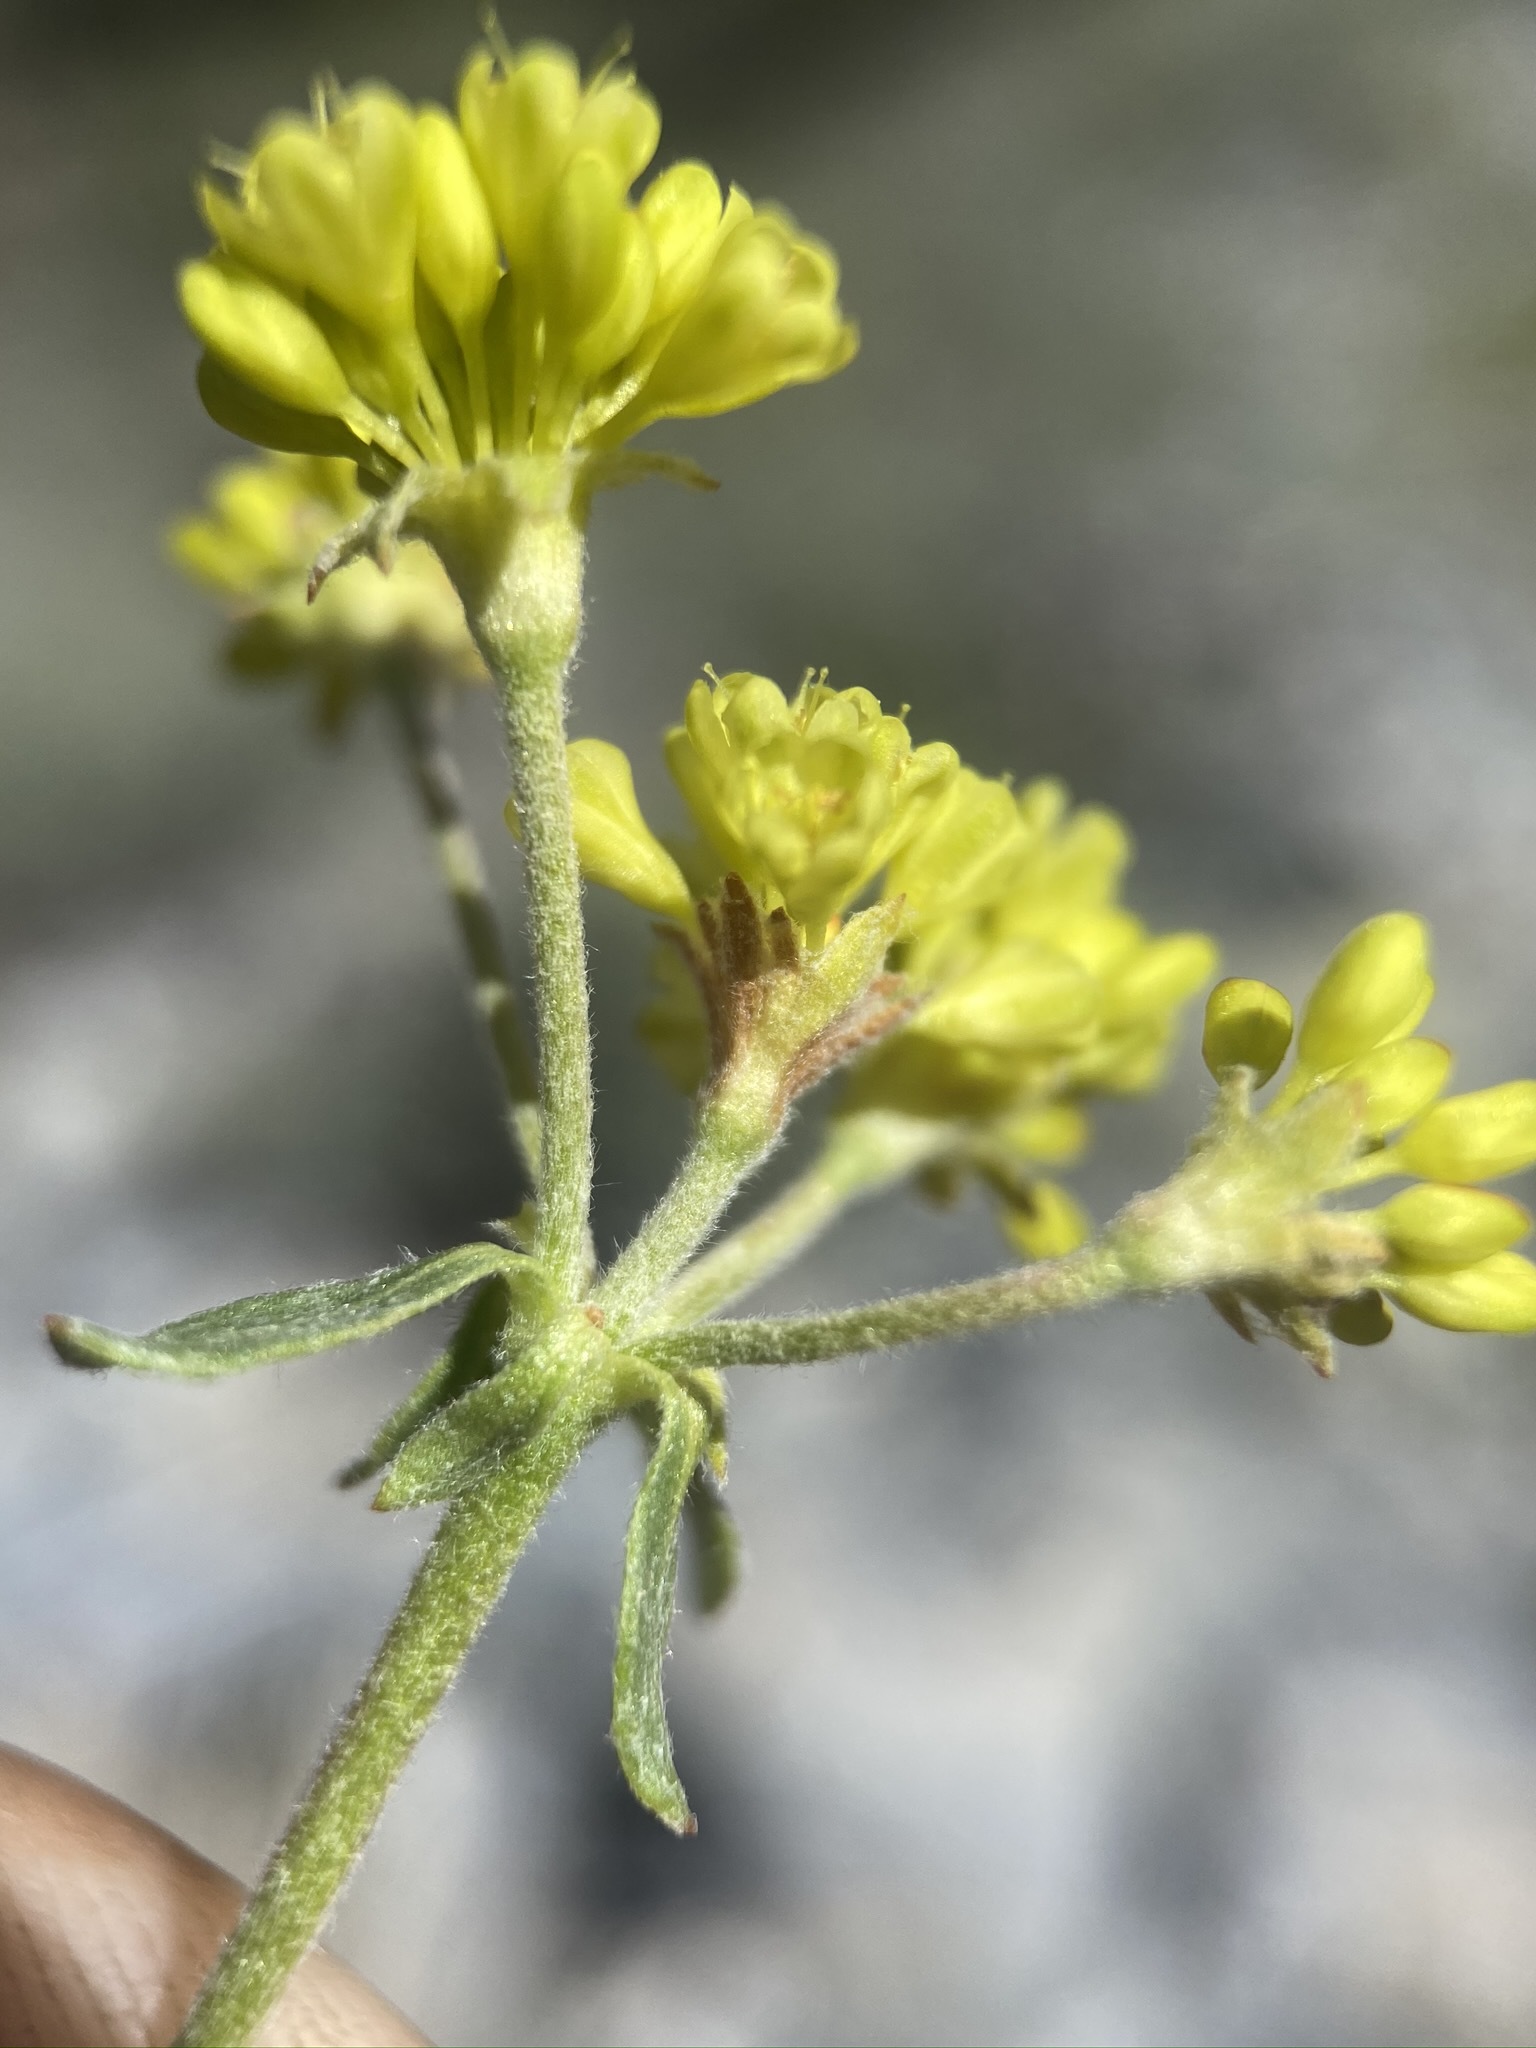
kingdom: Plantae
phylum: Tracheophyta
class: Magnoliopsida
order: Caryophyllales
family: Polygonaceae
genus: Eriogonum
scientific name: Eriogonum umbellatum
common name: Sulfur-buckwheat
